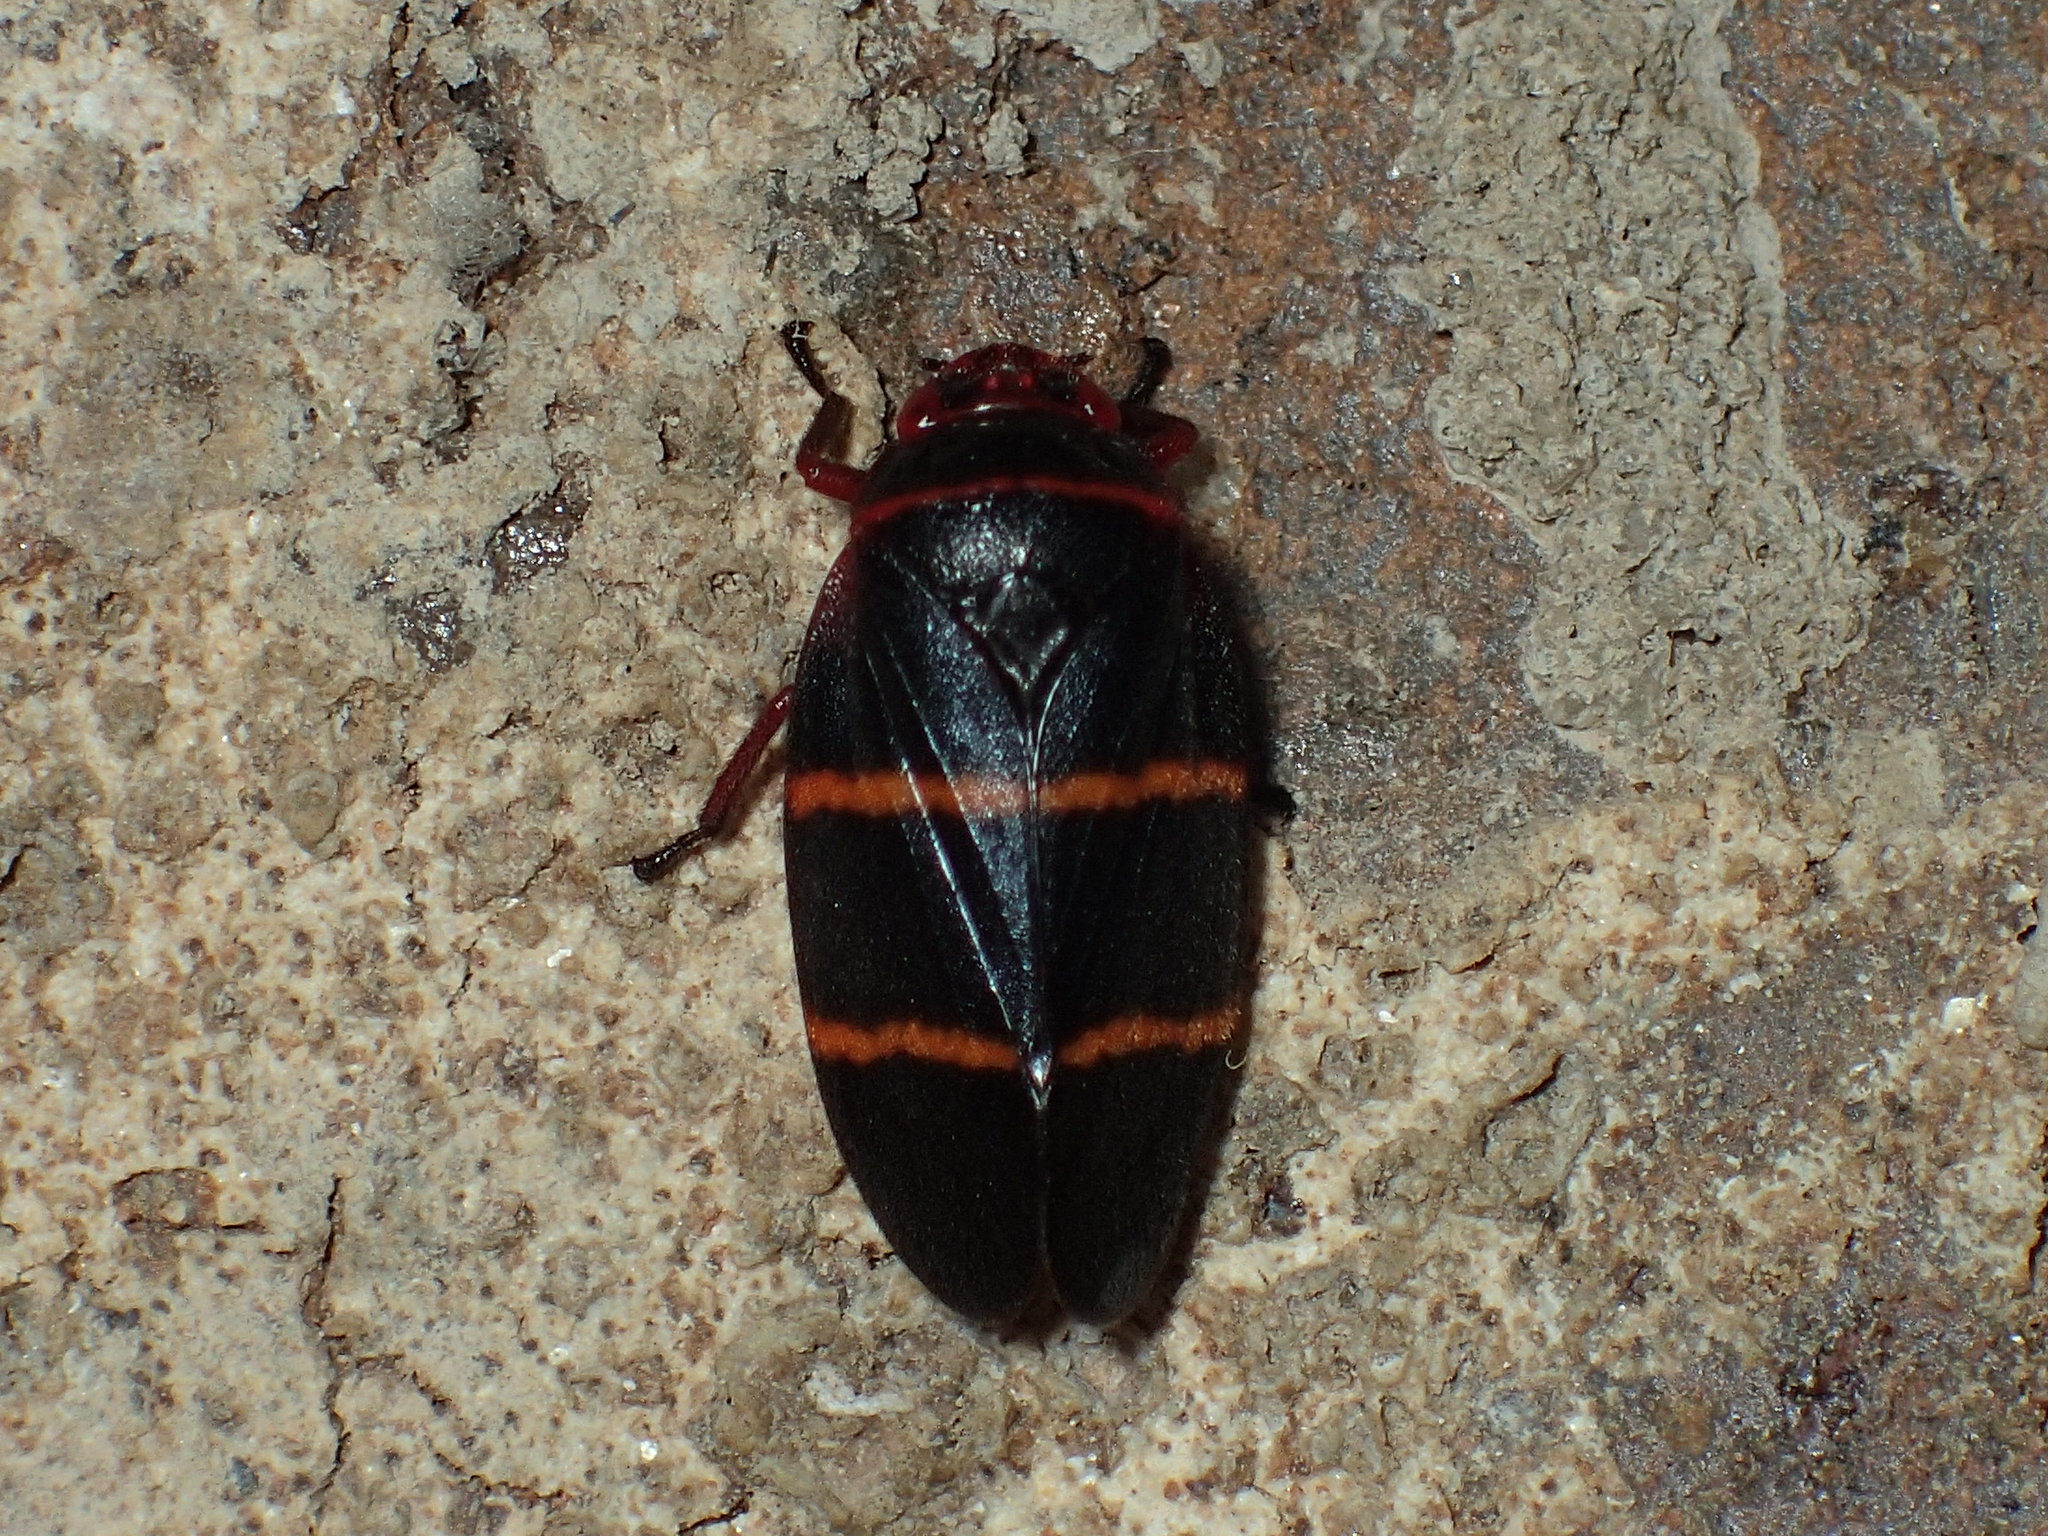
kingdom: Animalia
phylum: Arthropoda
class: Insecta
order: Hemiptera
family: Cercopidae
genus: Prosapia
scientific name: Prosapia bicincta
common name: Twolined spittlebug
